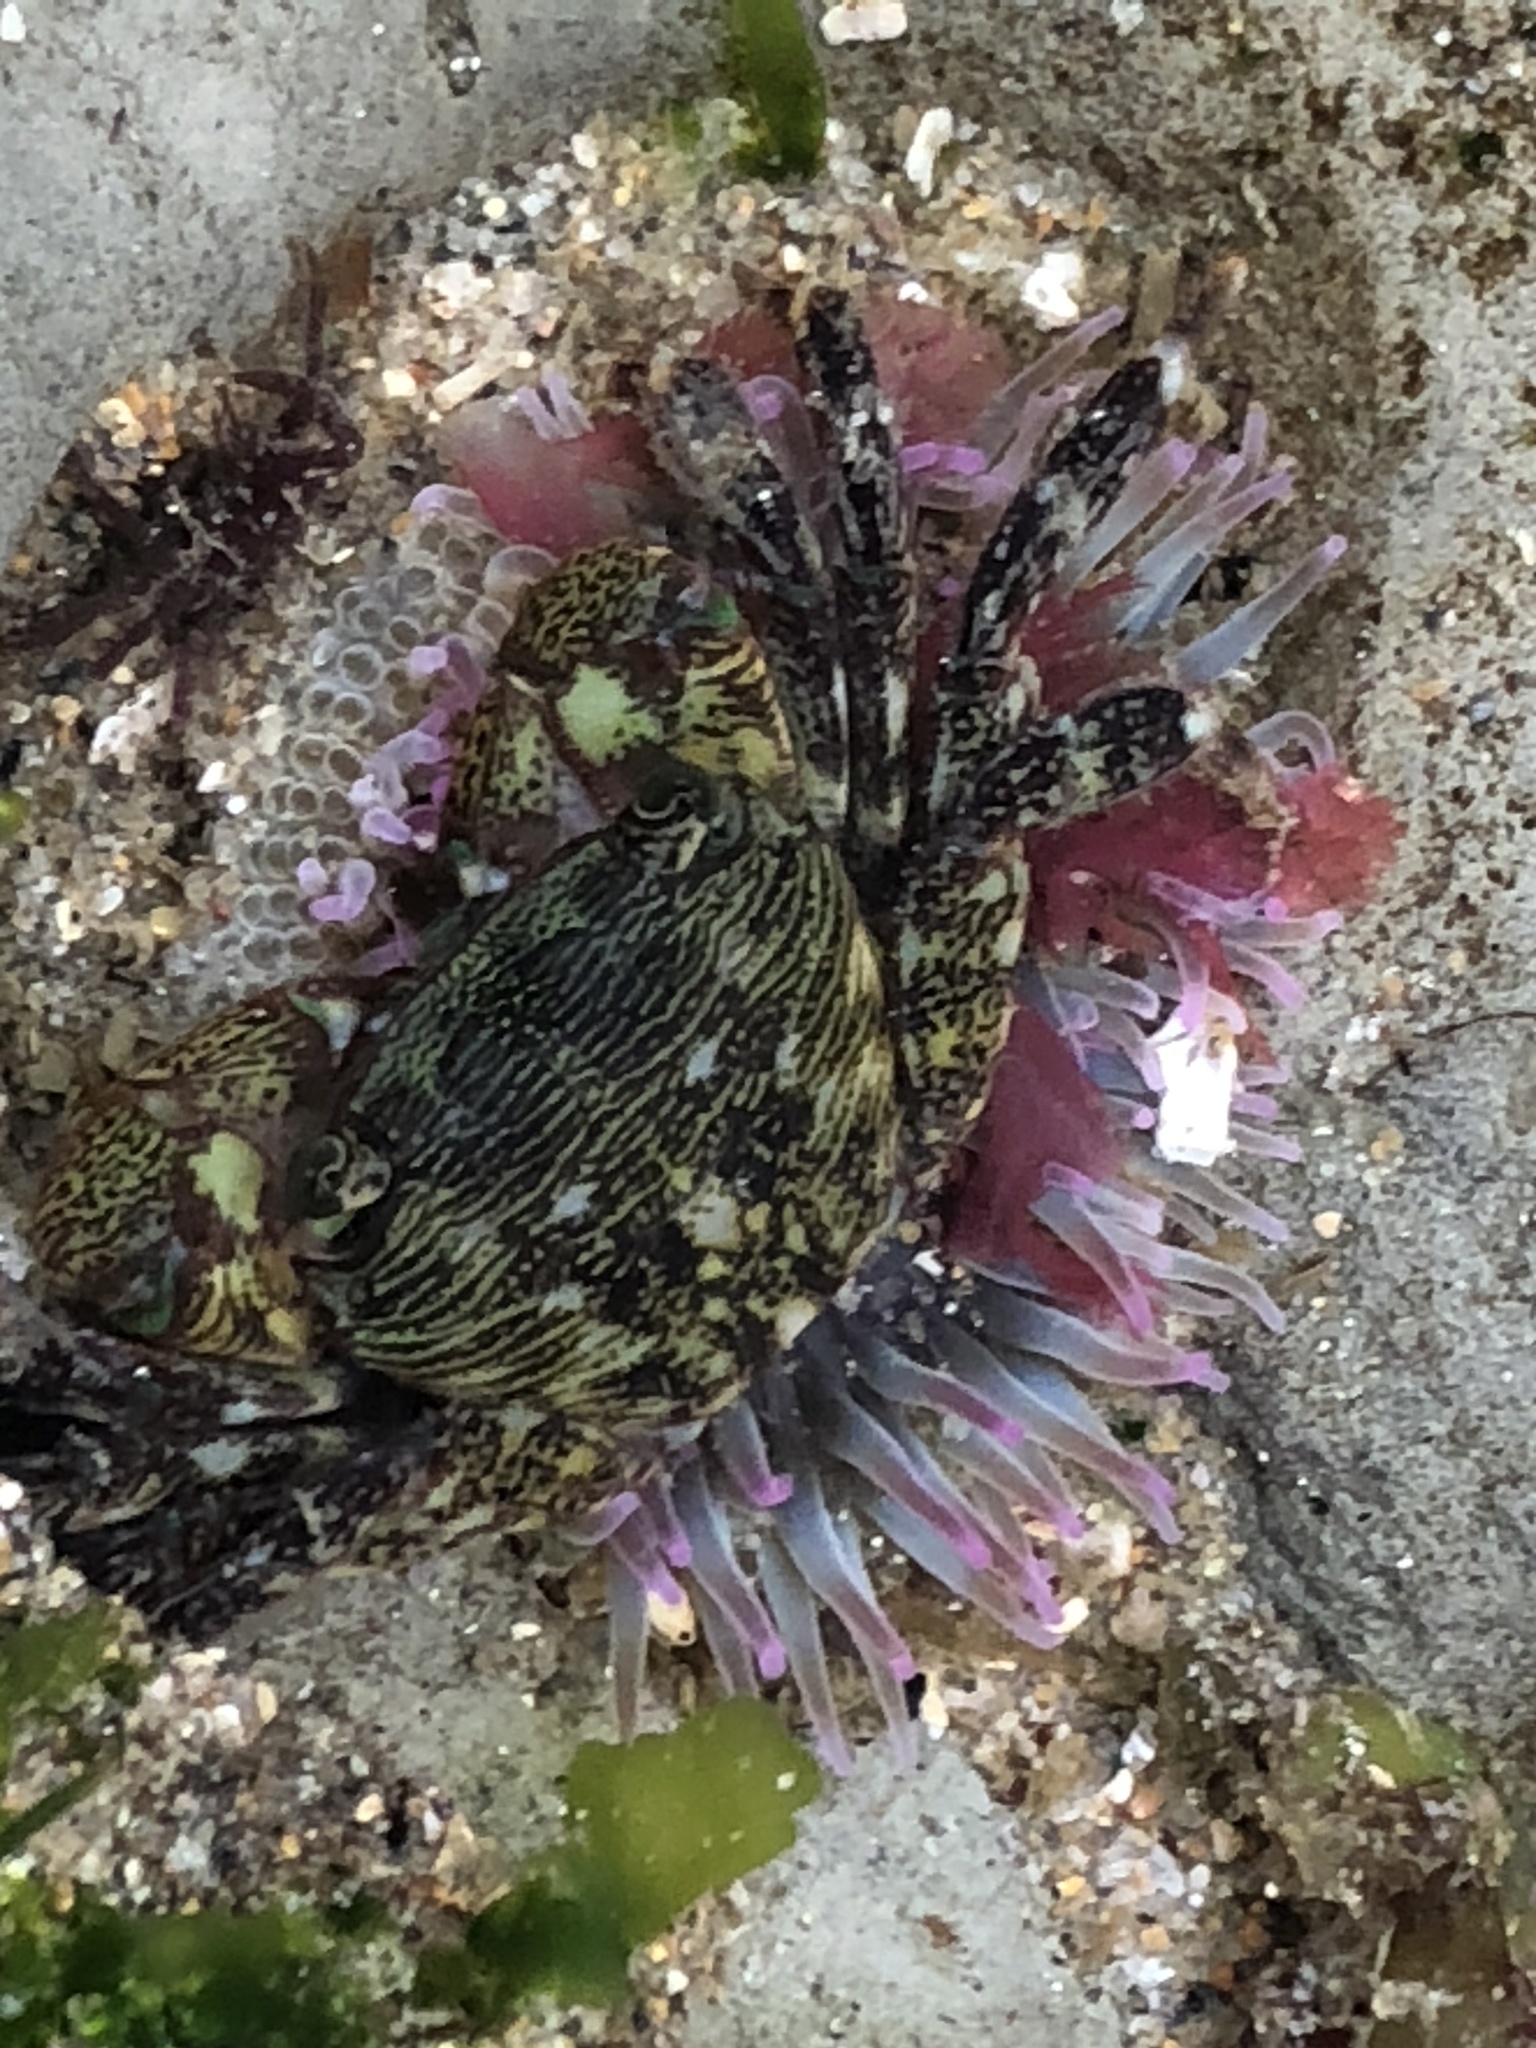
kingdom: Animalia
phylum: Cnidaria
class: Anthozoa
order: Actiniaria
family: Actiniidae
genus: Anthopleura
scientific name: Anthopleura elegantissima
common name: Clonal anemone
